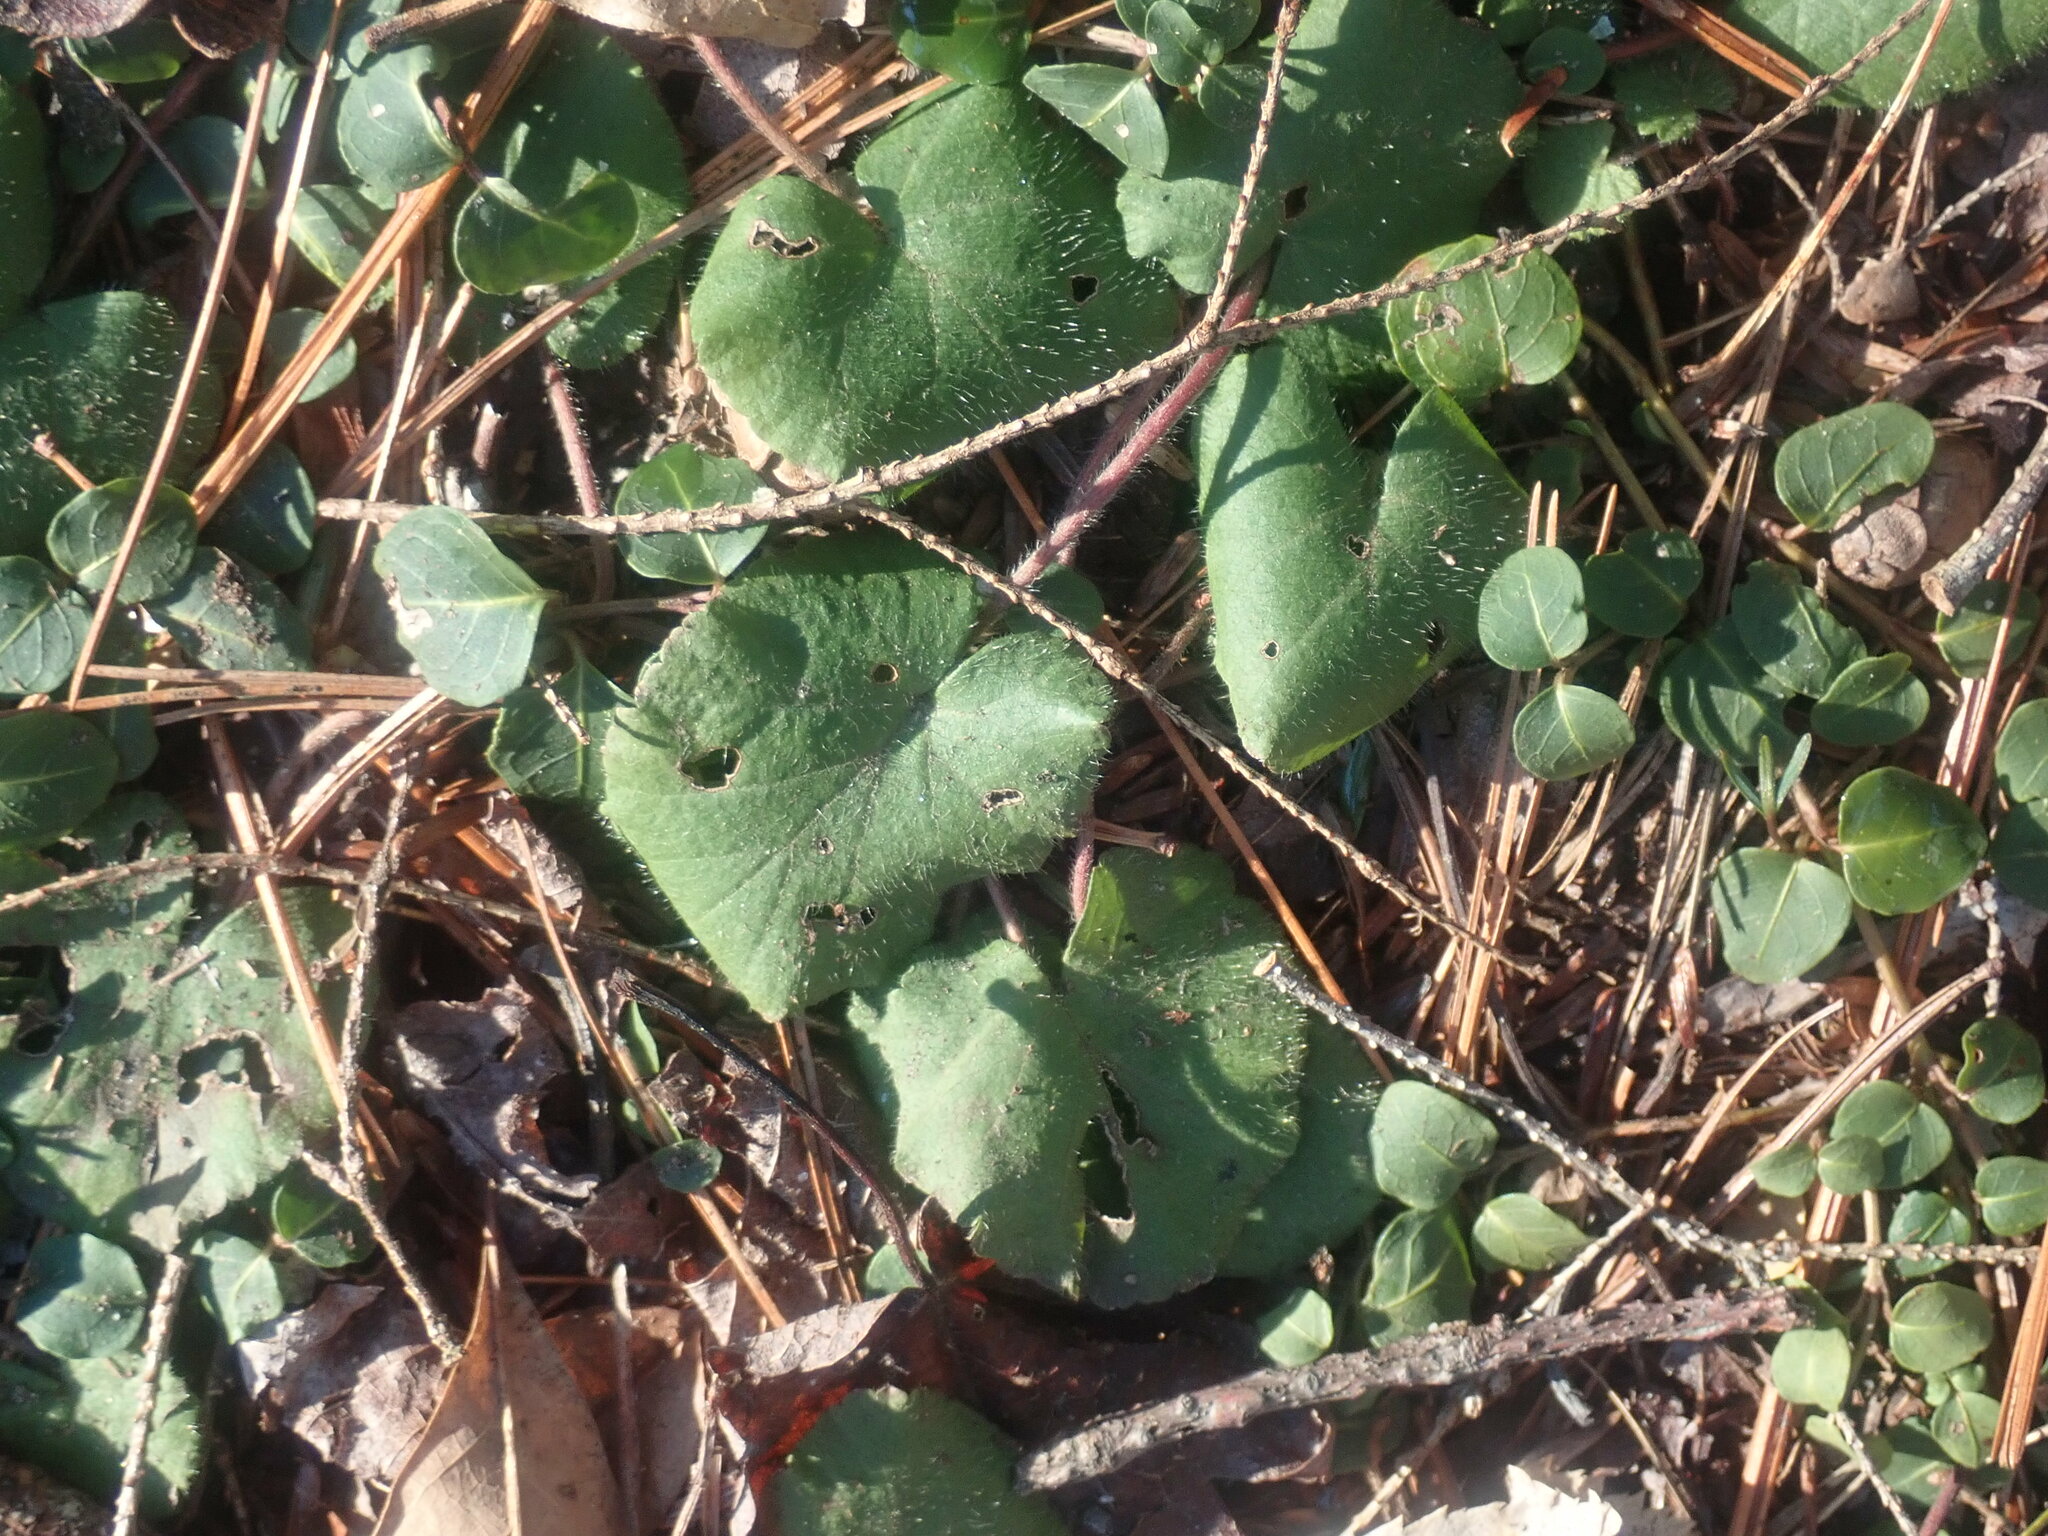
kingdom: Plantae
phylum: Tracheophyta
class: Magnoliopsida
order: Rosales
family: Rosaceae
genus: Dalibarda
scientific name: Dalibarda repens
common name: Dewdrop
